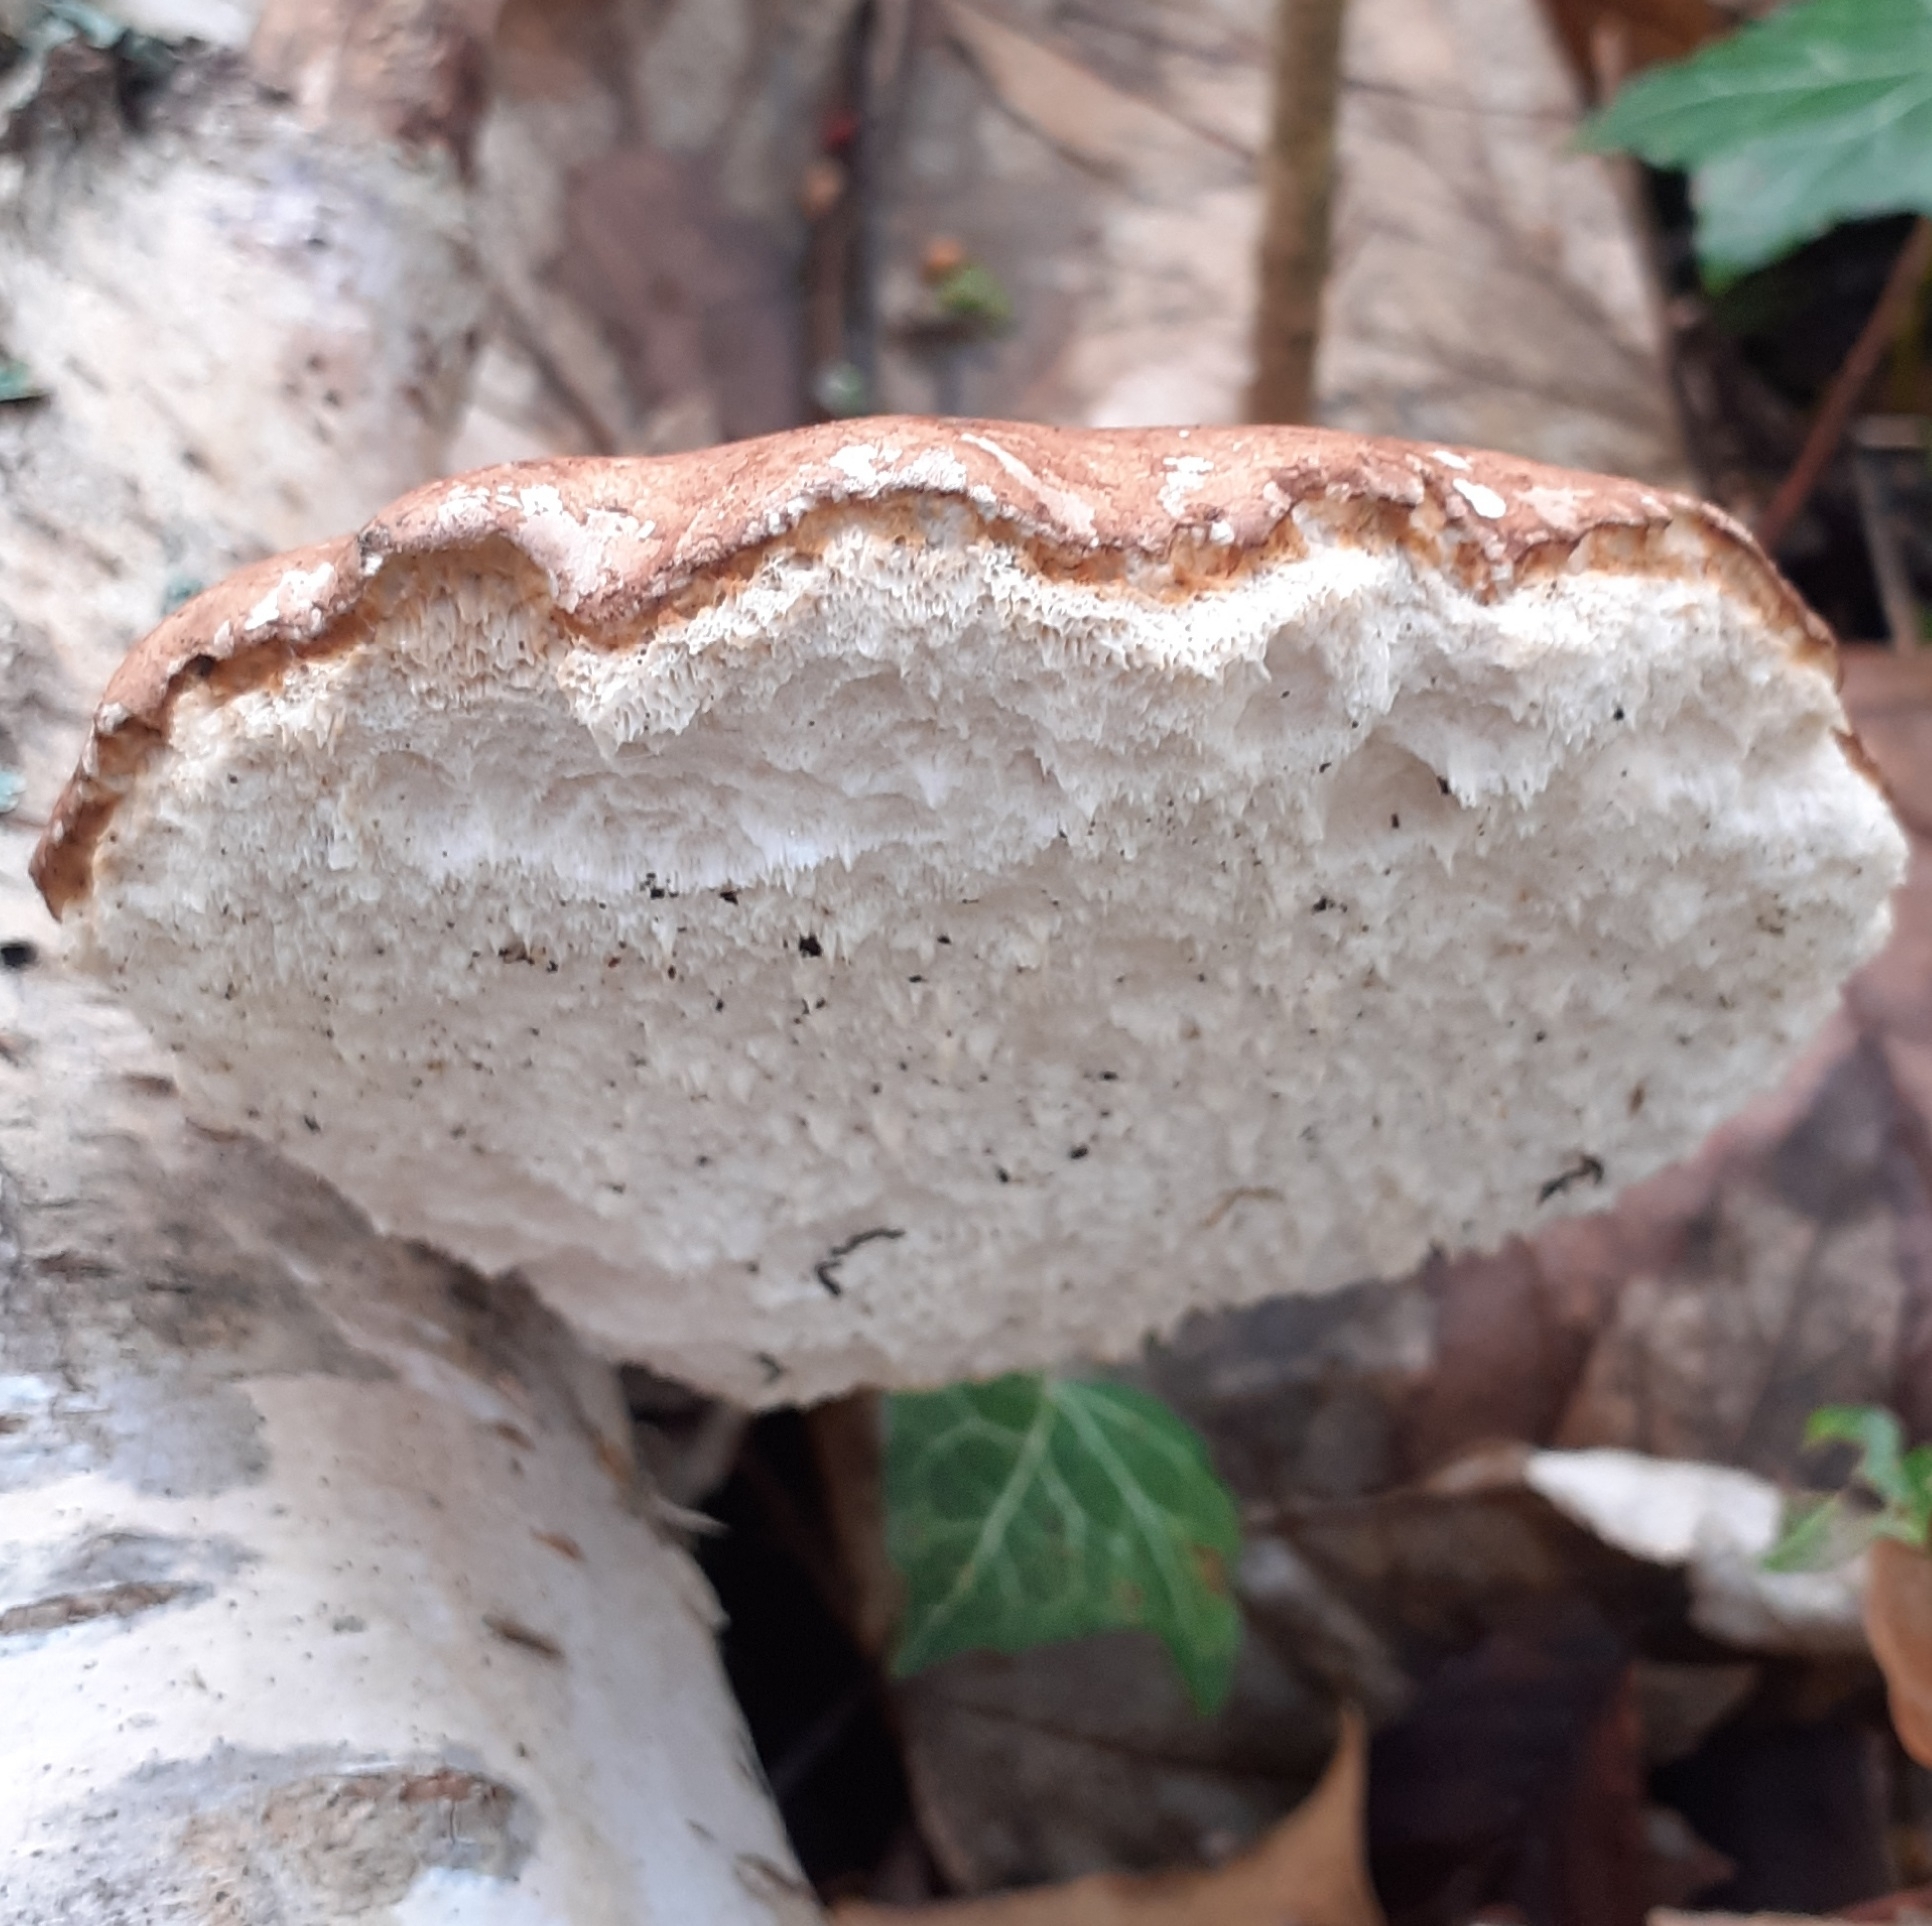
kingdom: Fungi
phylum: Basidiomycota
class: Agaricomycetes
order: Polyporales
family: Fomitopsidaceae
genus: Fomitopsis
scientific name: Fomitopsis betulina
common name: Birch polypore
